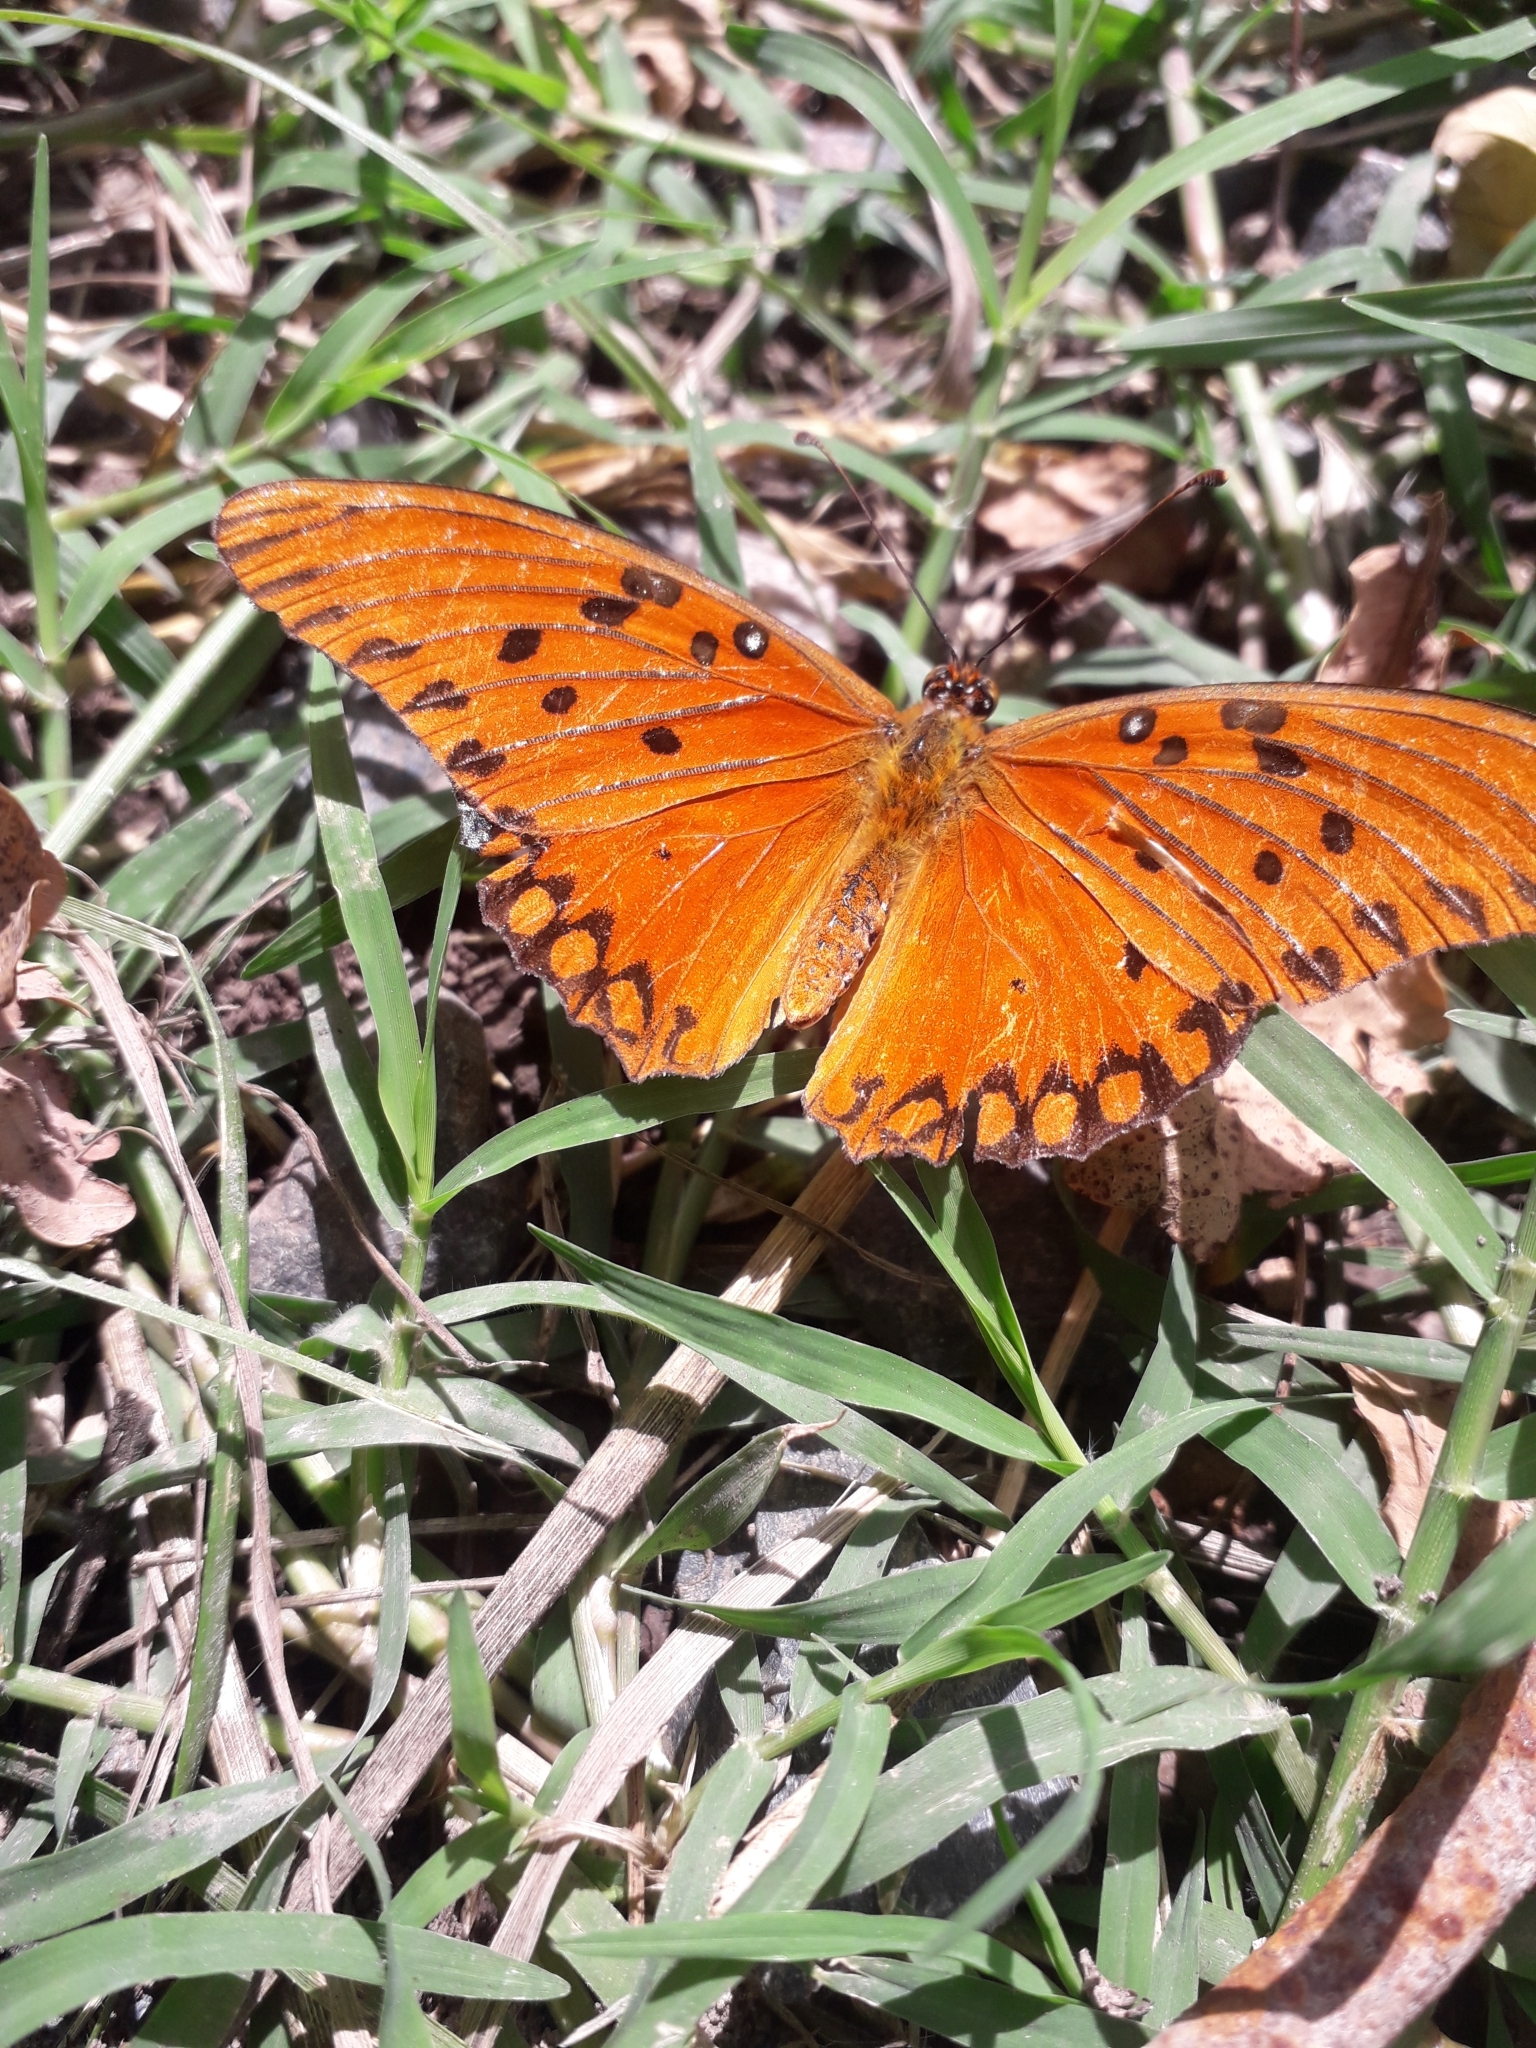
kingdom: Animalia
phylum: Arthropoda
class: Insecta
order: Lepidoptera
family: Nymphalidae
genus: Dione
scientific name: Dione vanillae
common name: Gulf fritillary
